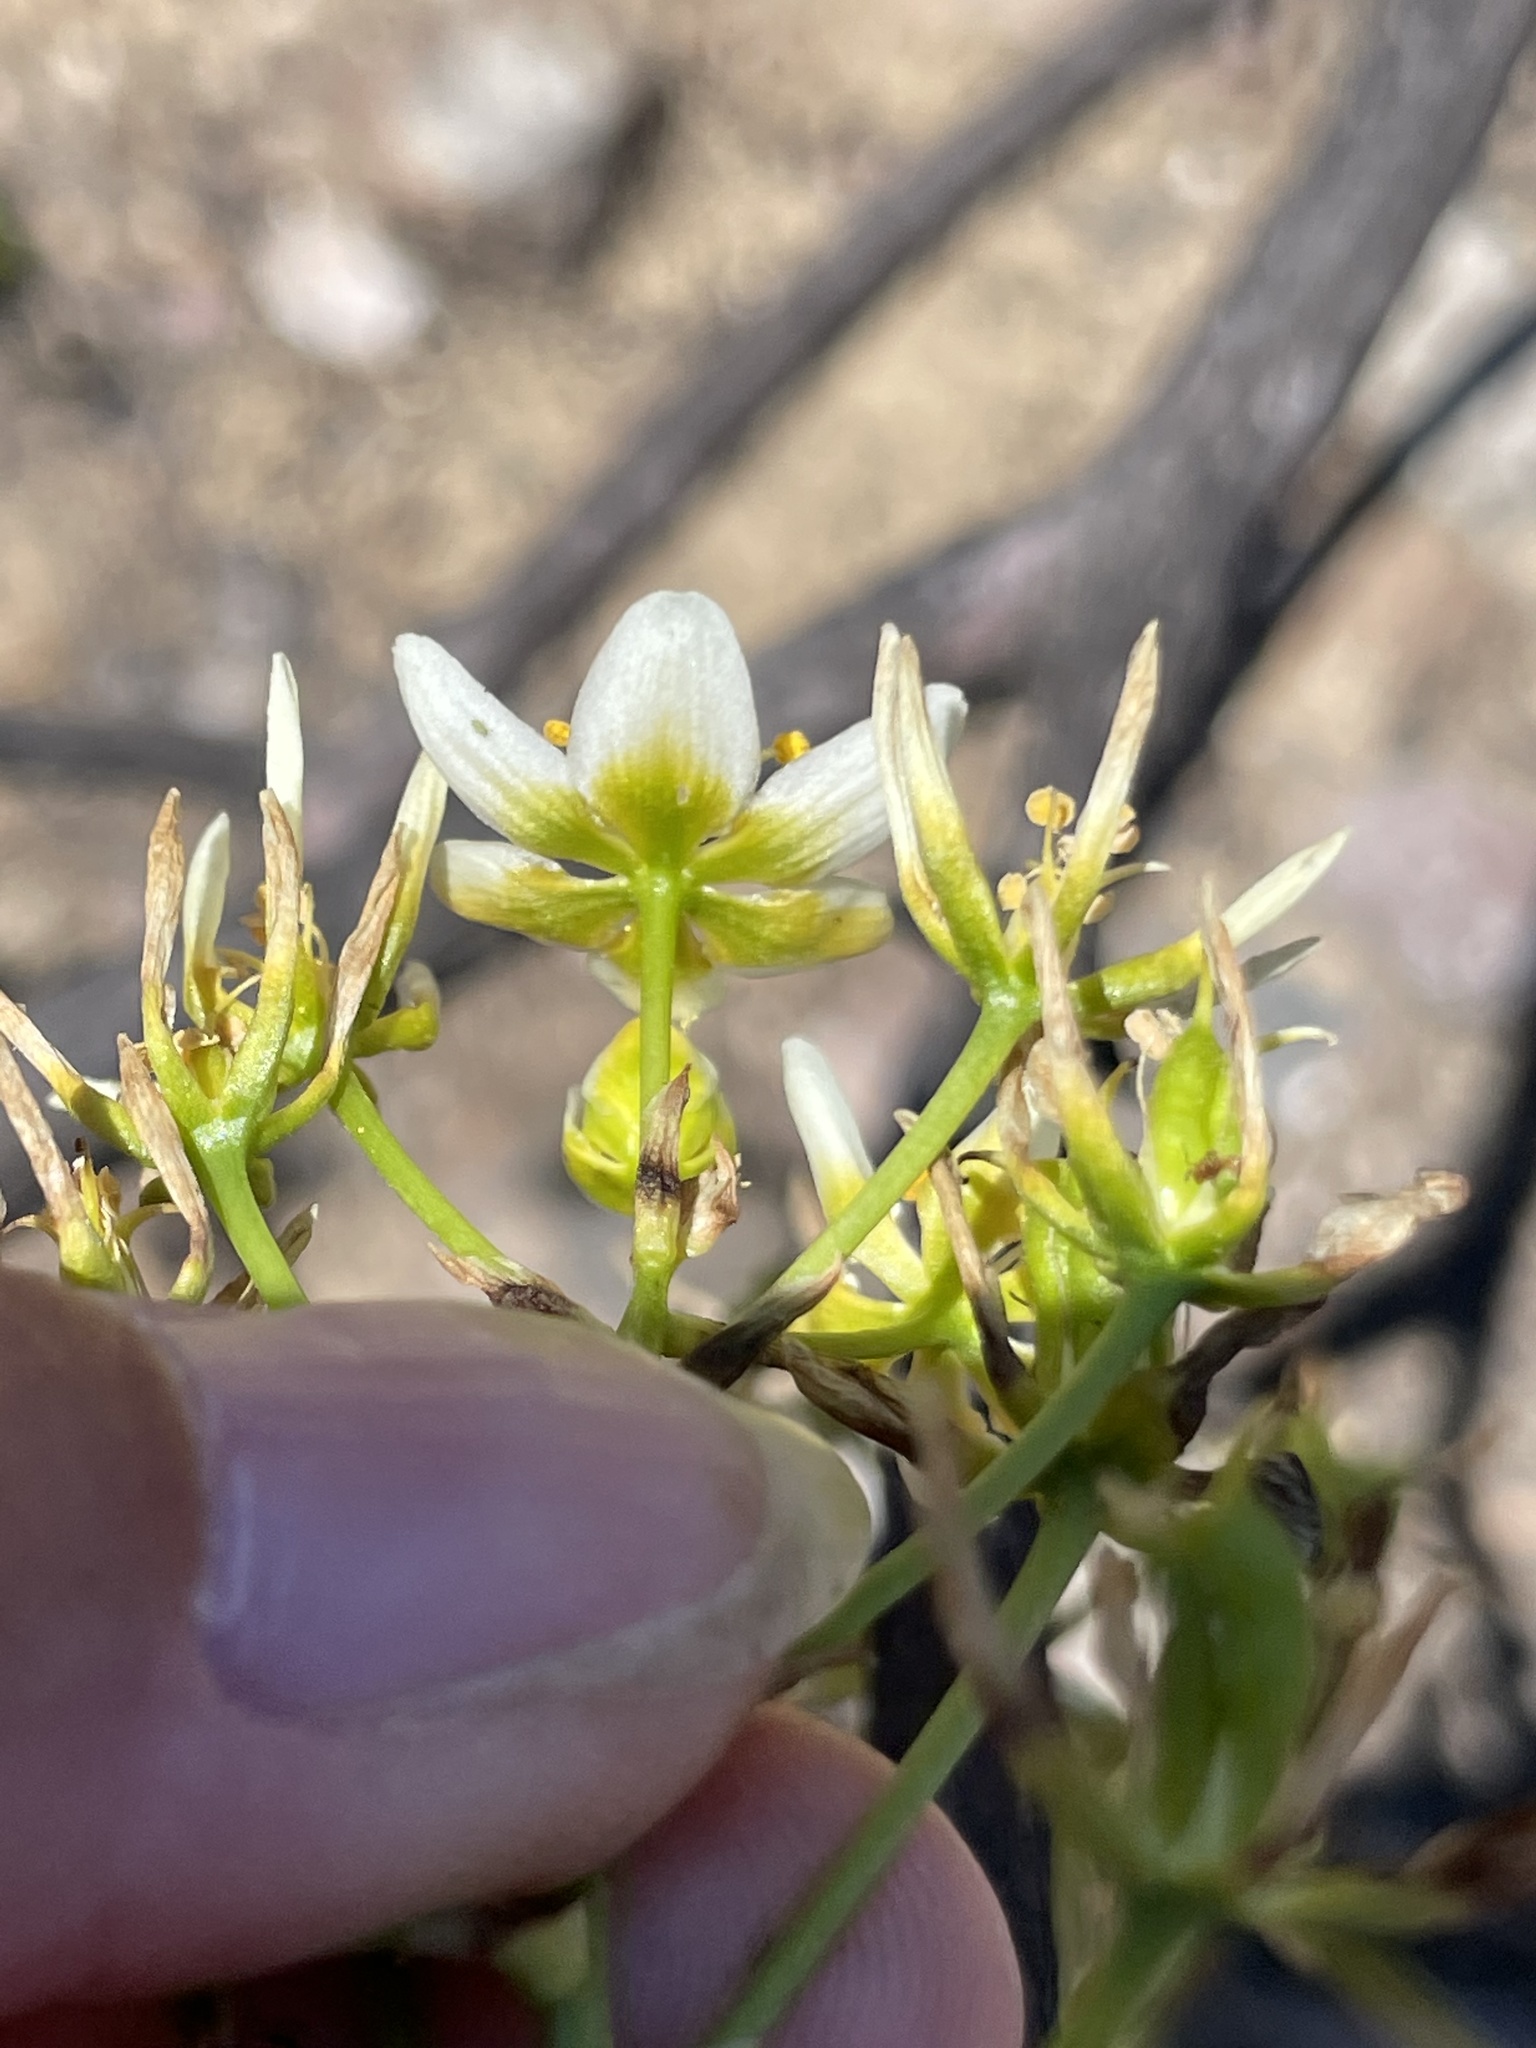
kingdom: Plantae
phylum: Tracheophyta
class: Liliopsida
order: Liliales
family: Melanthiaceae
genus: Toxicoscordion
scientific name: Toxicoscordion fremontii
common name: Fremont's death camas
